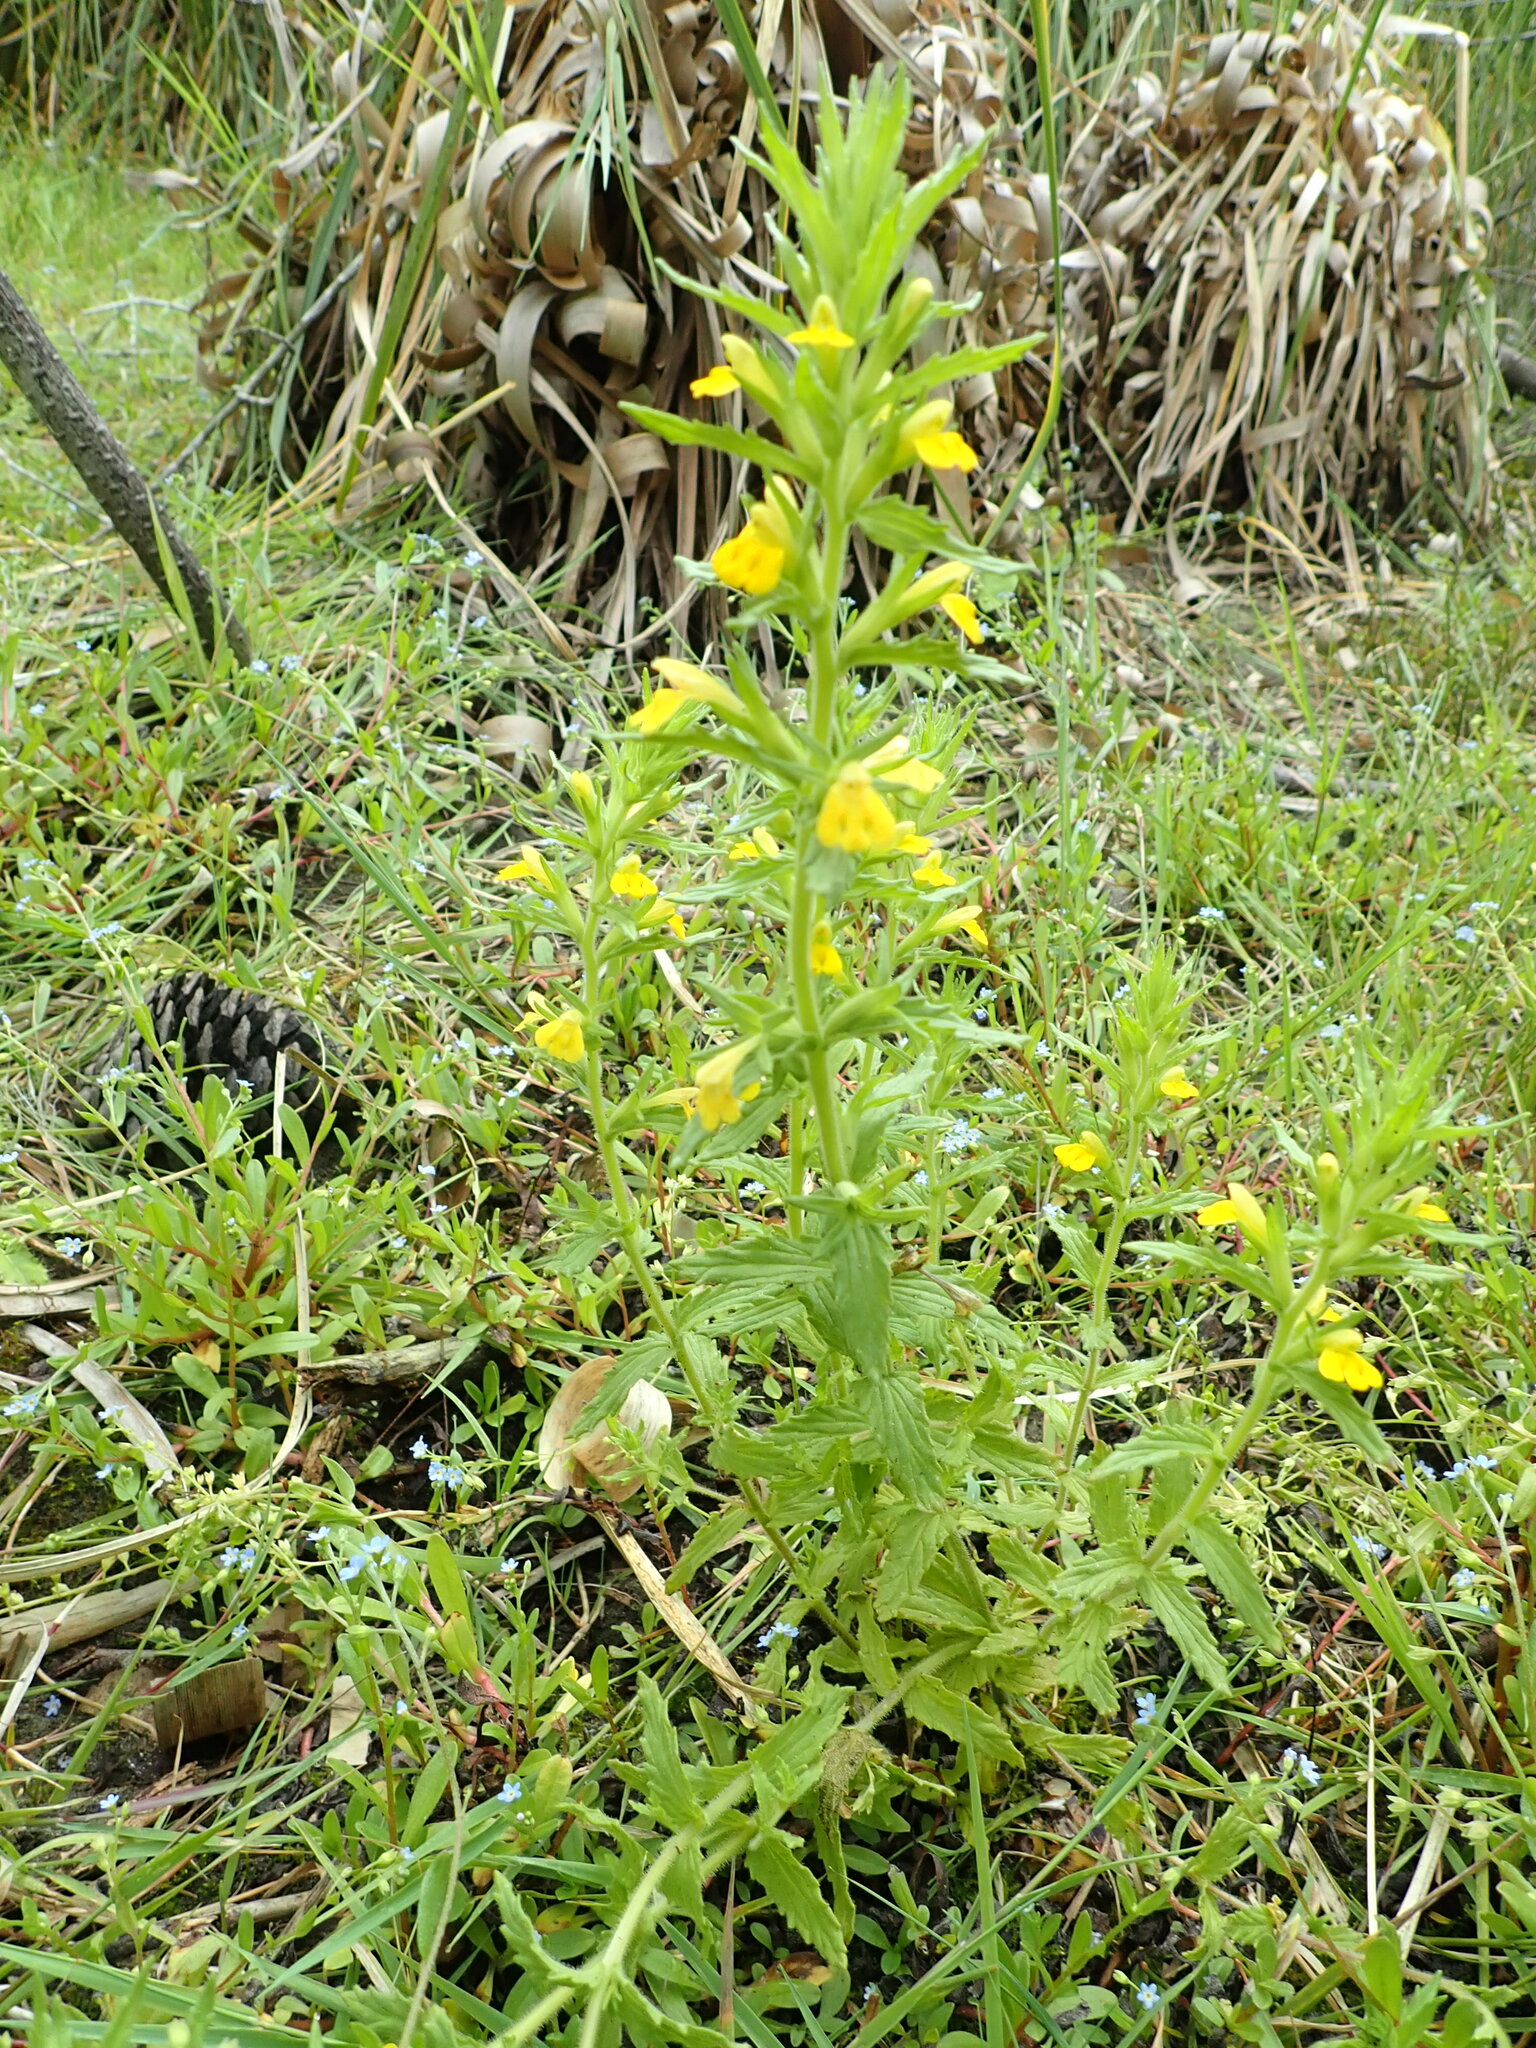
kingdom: Plantae
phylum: Tracheophyta
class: Magnoliopsida
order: Lamiales
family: Orobanchaceae
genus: Bellardia
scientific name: Bellardia viscosa
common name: Sticky parentucellia
